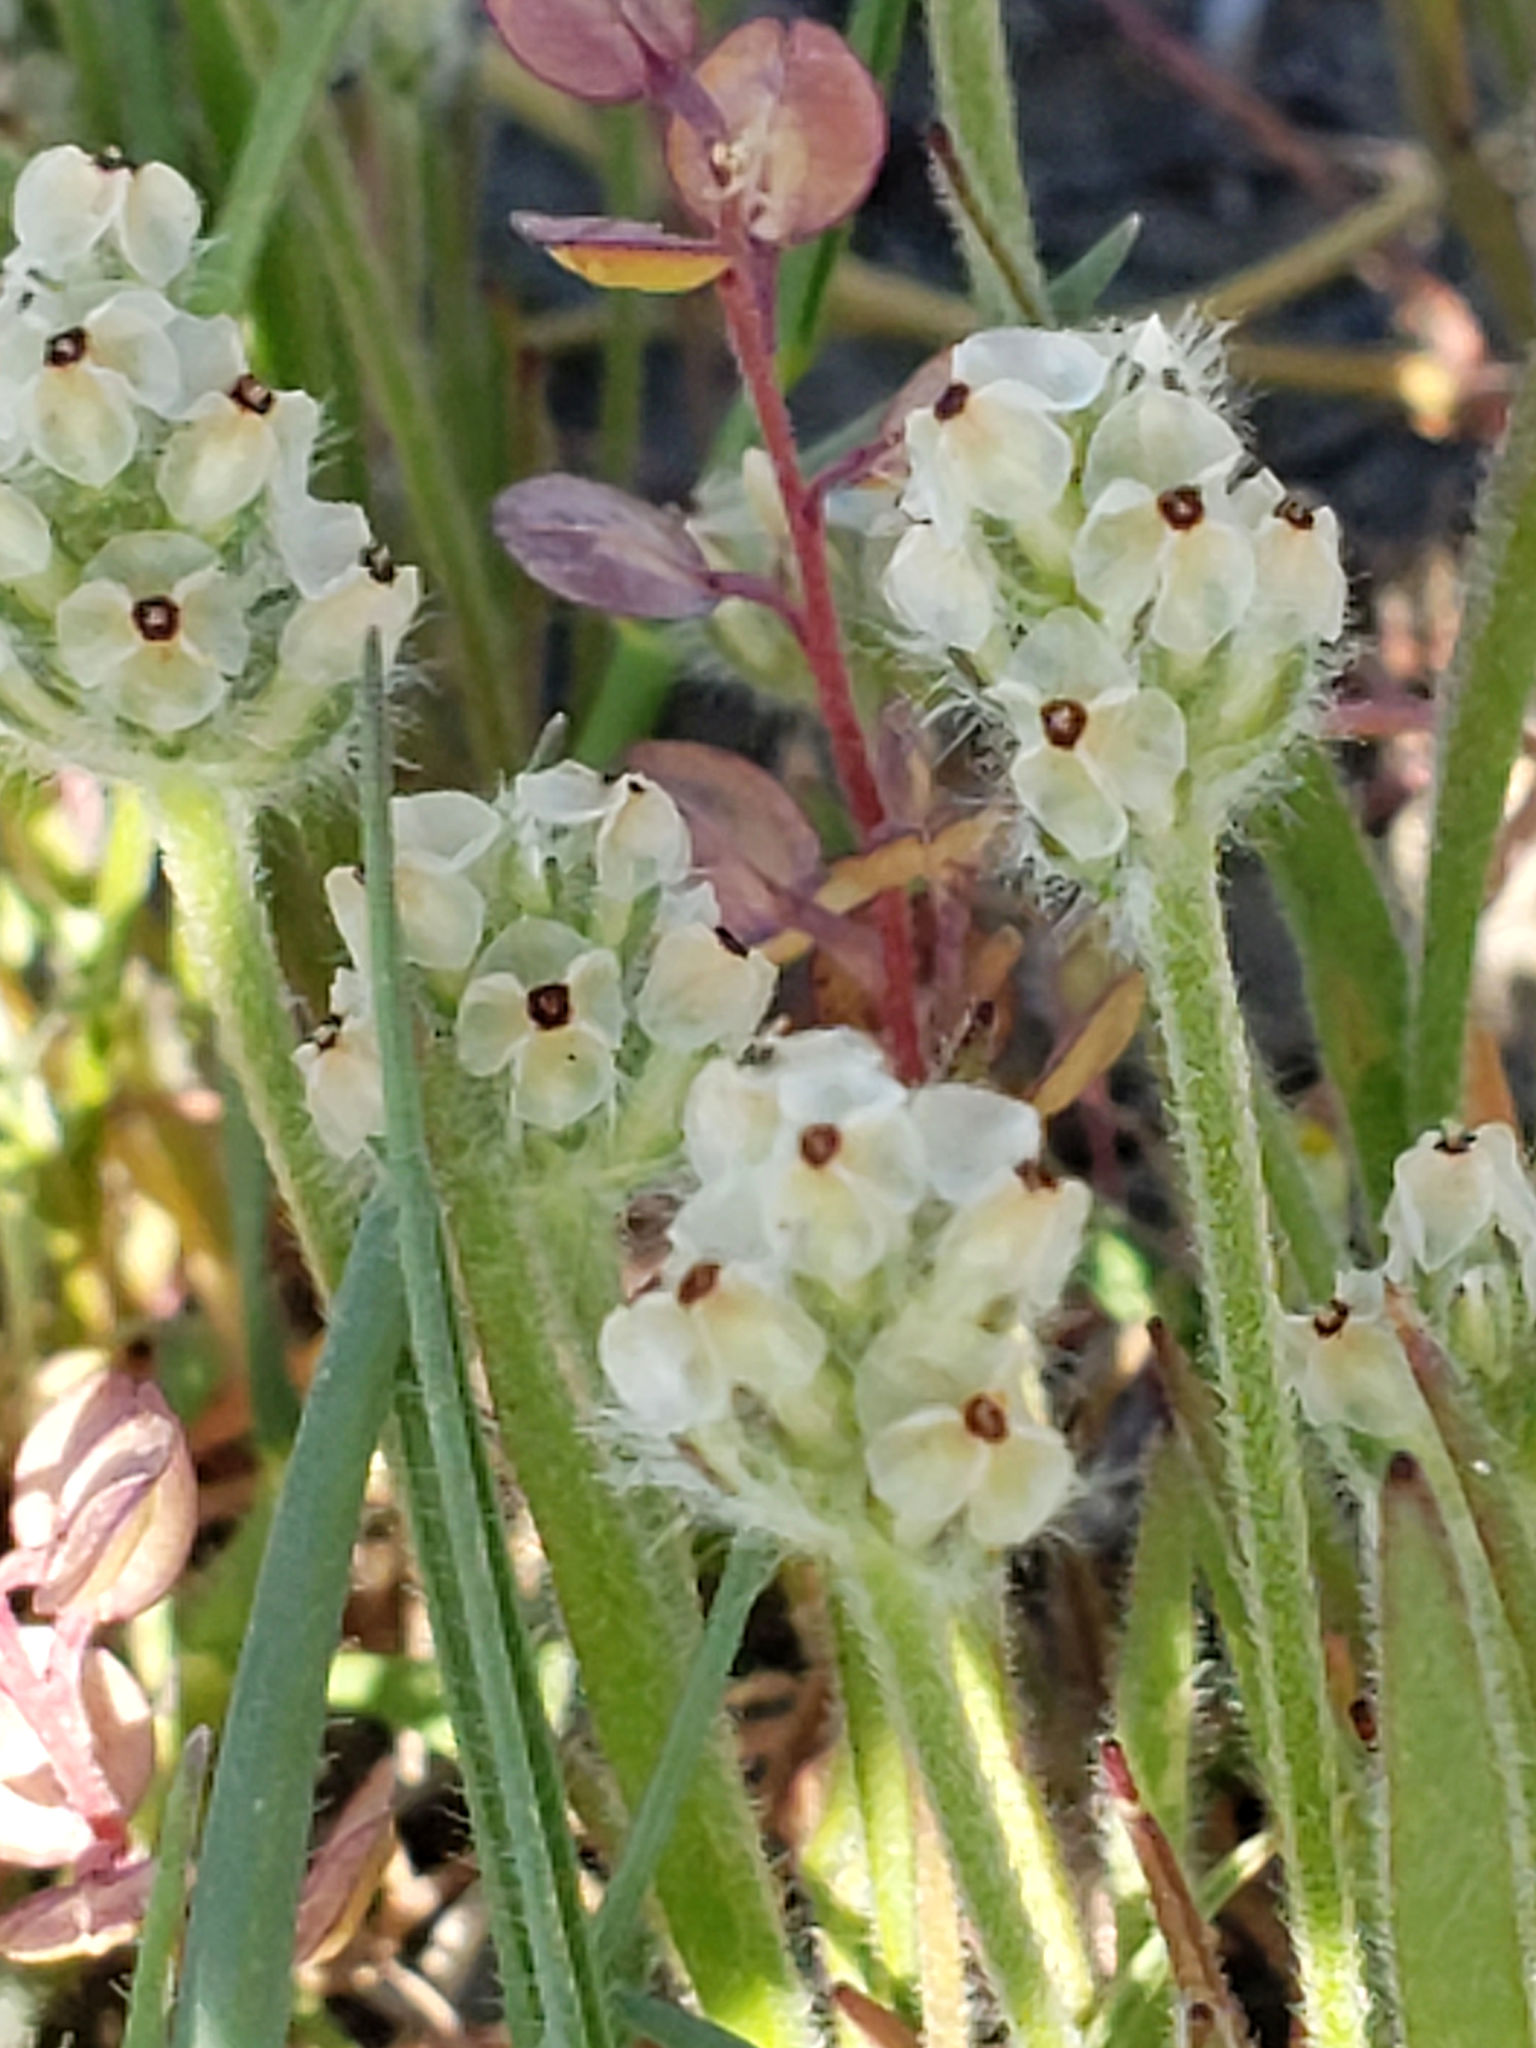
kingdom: Plantae
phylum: Tracheophyta
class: Magnoliopsida
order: Lamiales
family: Plantaginaceae
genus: Plantago
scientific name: Plantago erecta
